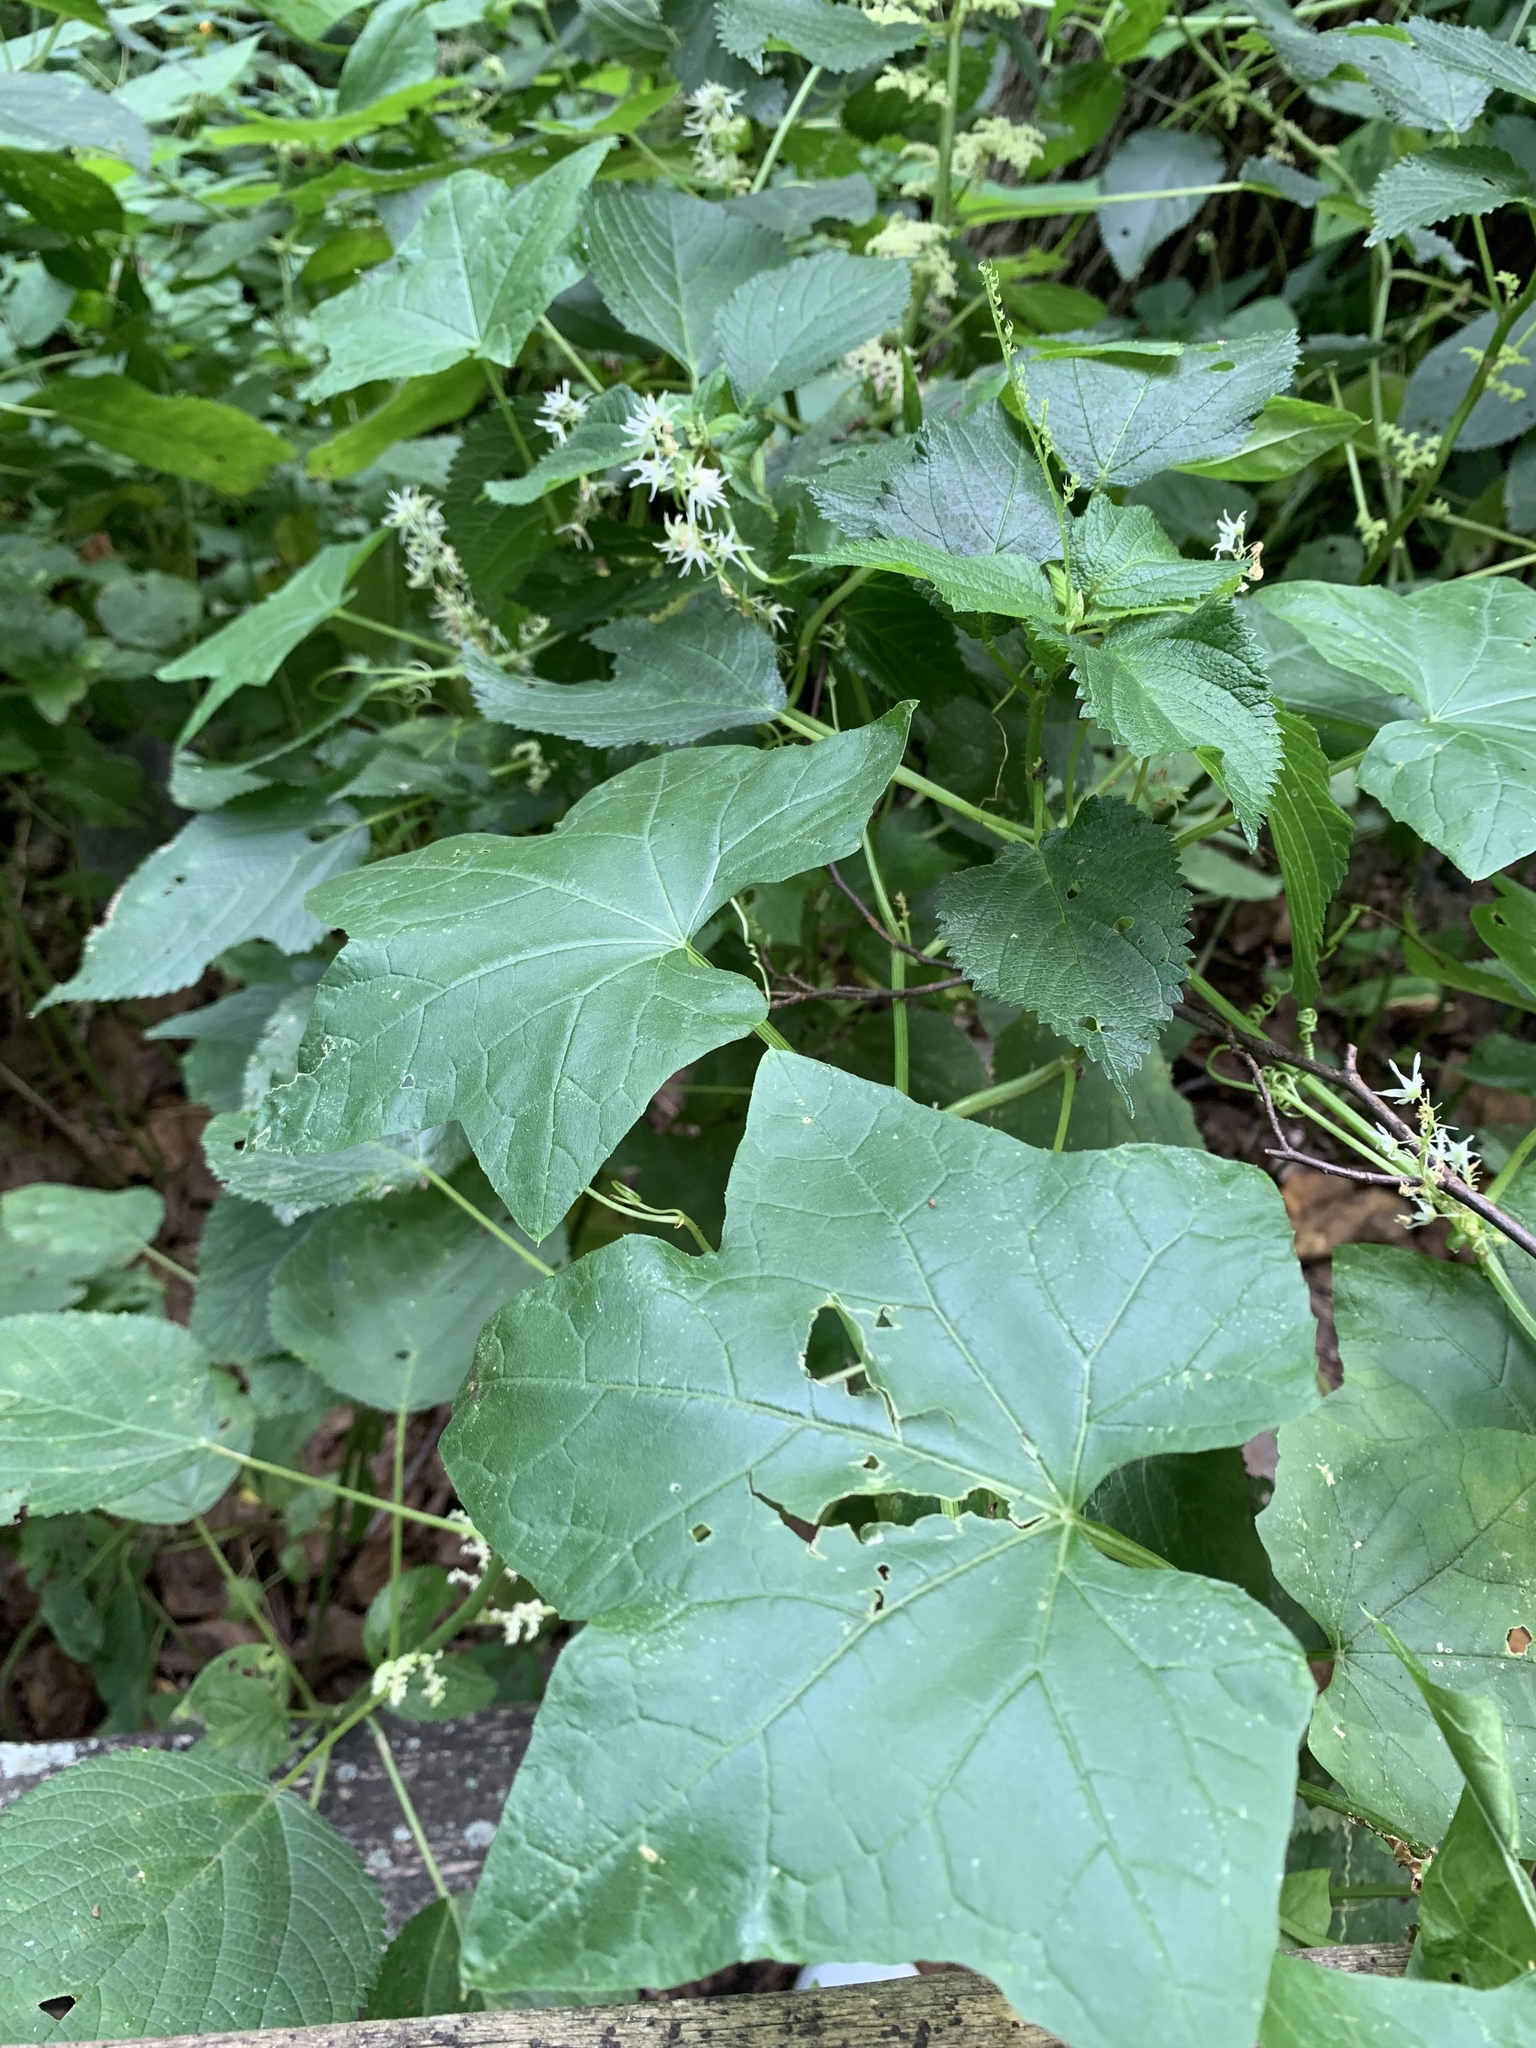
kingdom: Plantae
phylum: Tracheophyta
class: Magnoliopsida
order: Cucurbitales
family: Cucurbitaceae
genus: Echinocystis
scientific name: Echinocystis lobata
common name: Wild cucumber
